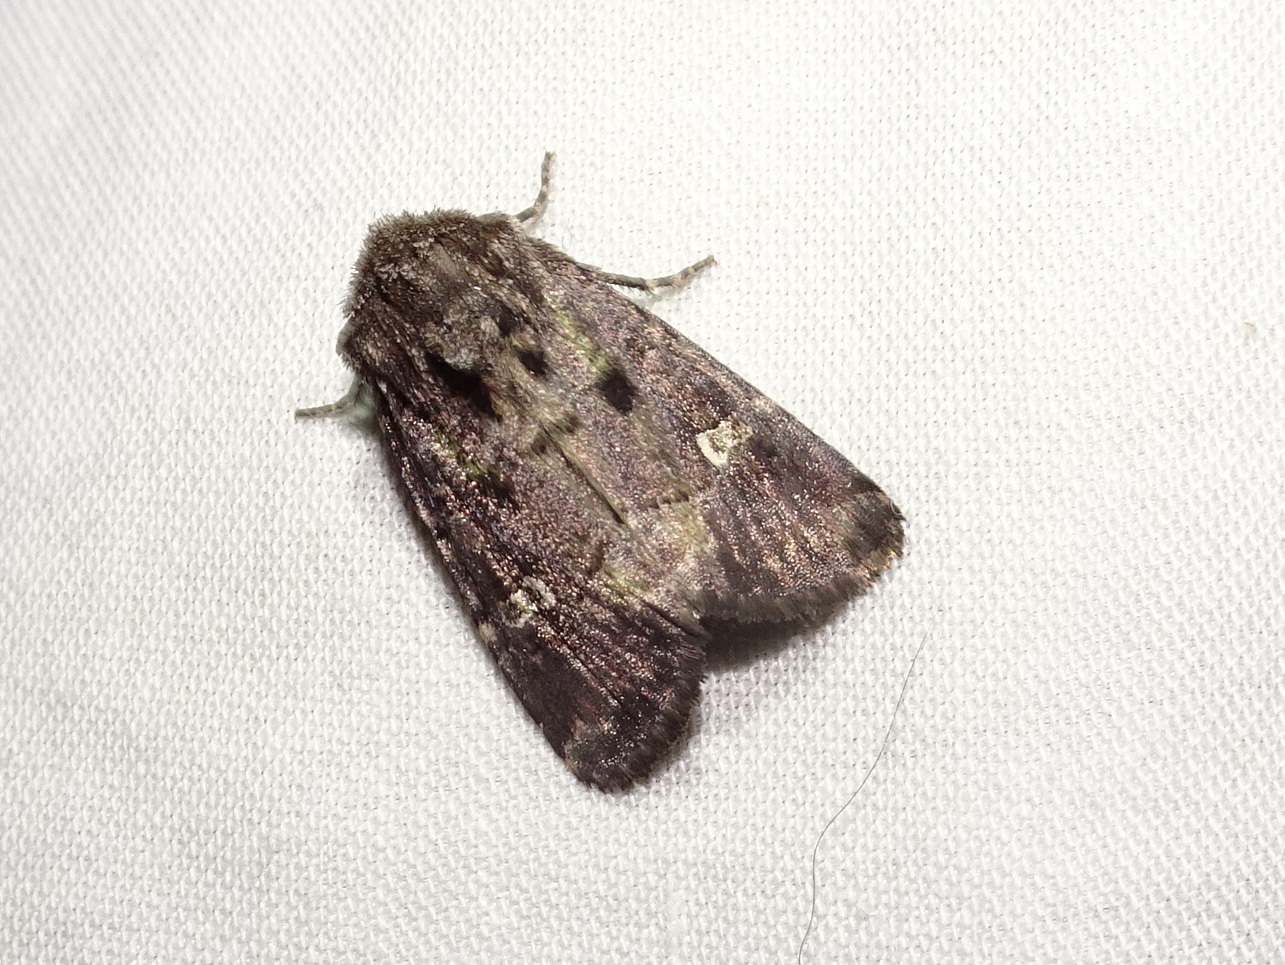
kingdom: Animalia
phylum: Arthropoda
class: Insecta
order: Lepidoptera
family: Noctuidae
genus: Lacinipolia
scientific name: Lacinipolia renigera
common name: Kidney-spotted minor
